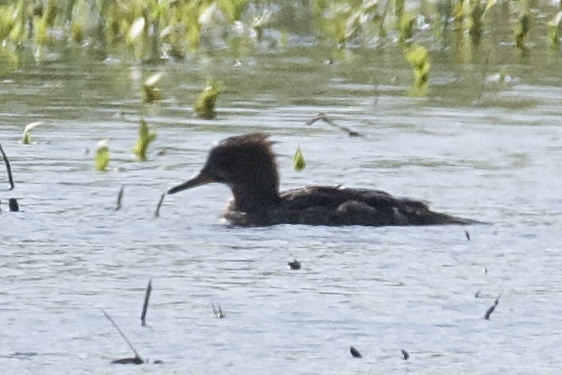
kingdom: Animalia
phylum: Chordata
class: Aves
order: Anseriformes
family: Anatidae
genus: Lophodytes
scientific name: Lophodytes cucullatus
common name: Hooded merganser
